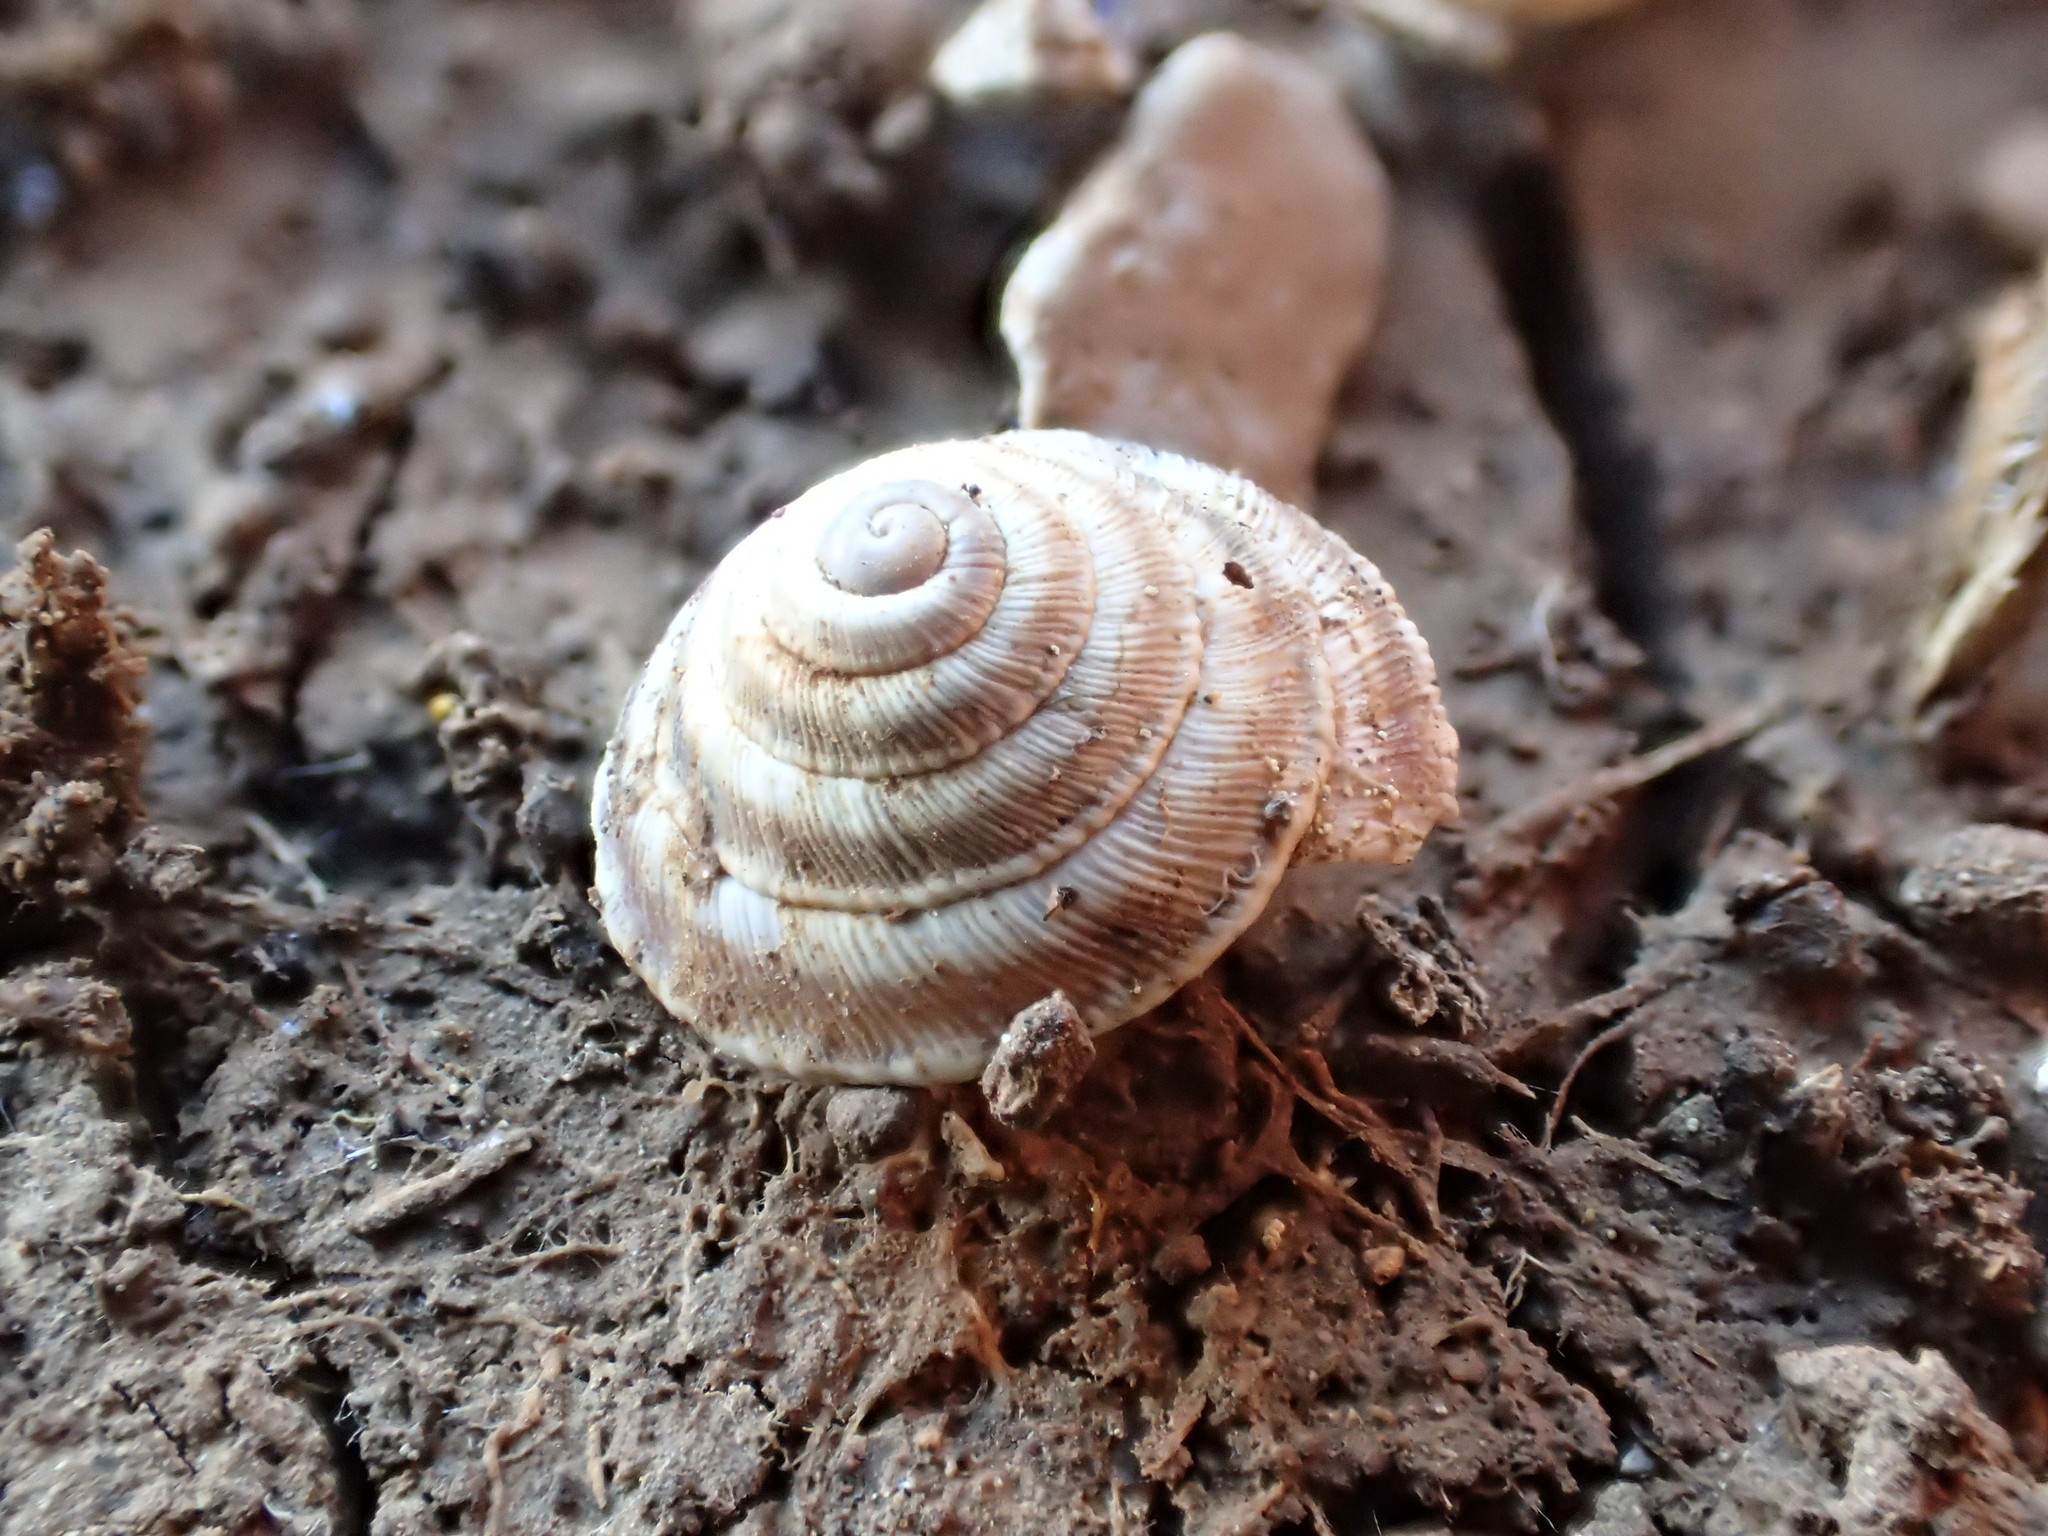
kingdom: Animalia
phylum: Mollusca
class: Gastropoda
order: Stylommatophora
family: Geomitridae
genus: Trochoidea
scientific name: Trochoidea elegans
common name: Elegant helicellid
